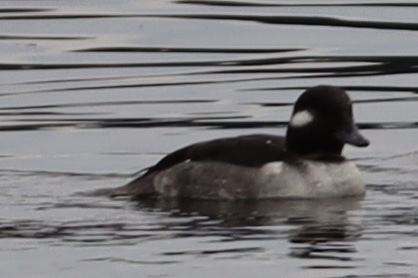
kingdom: Animalia
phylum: Chordata
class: Aves
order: Anseriformes
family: Anatidae
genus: Bucephala
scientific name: Bucephala albeola
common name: Bufflehead
